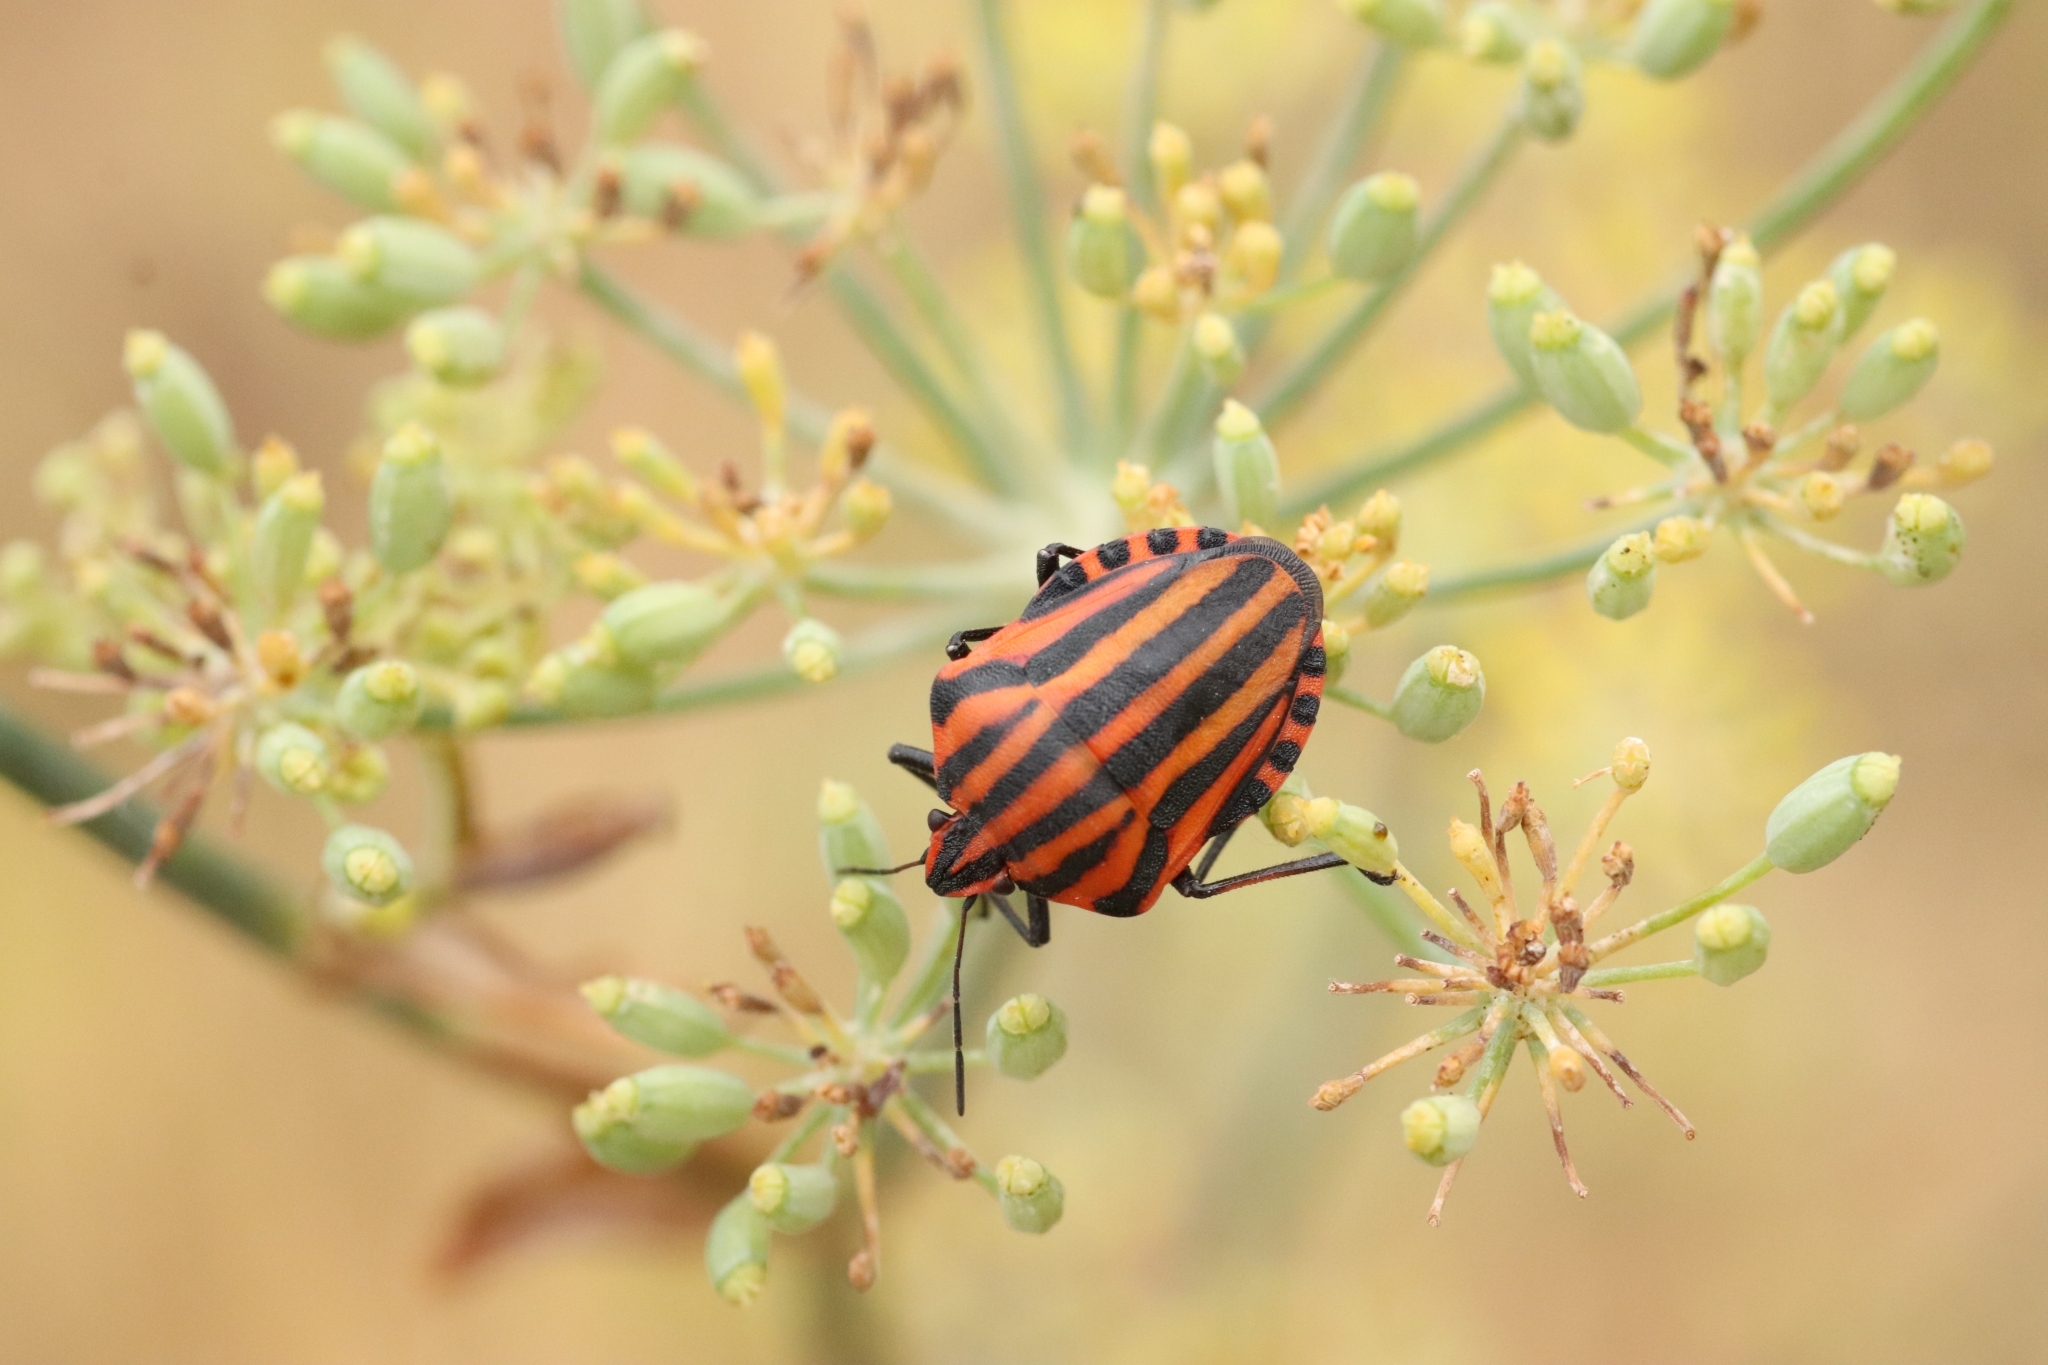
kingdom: Animalia
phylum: Arthropoda
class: Insecta
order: Hemiptera
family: Pentatomidae
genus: Graphosoma
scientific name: Graphosoma italicum
